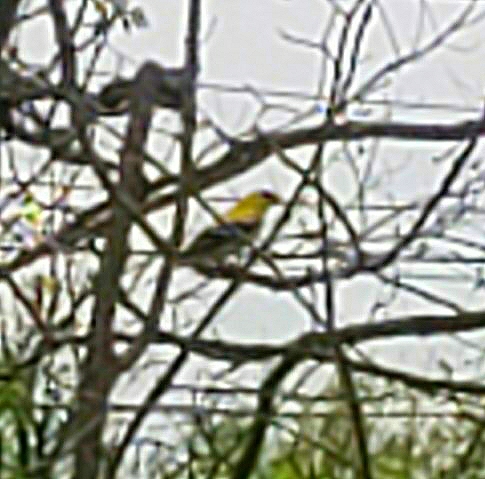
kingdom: Animalia
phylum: Chordata
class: Aves
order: Passeriformes
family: Fringillidae
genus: Spinus
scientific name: Spinus tristis
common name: American goldfinch
